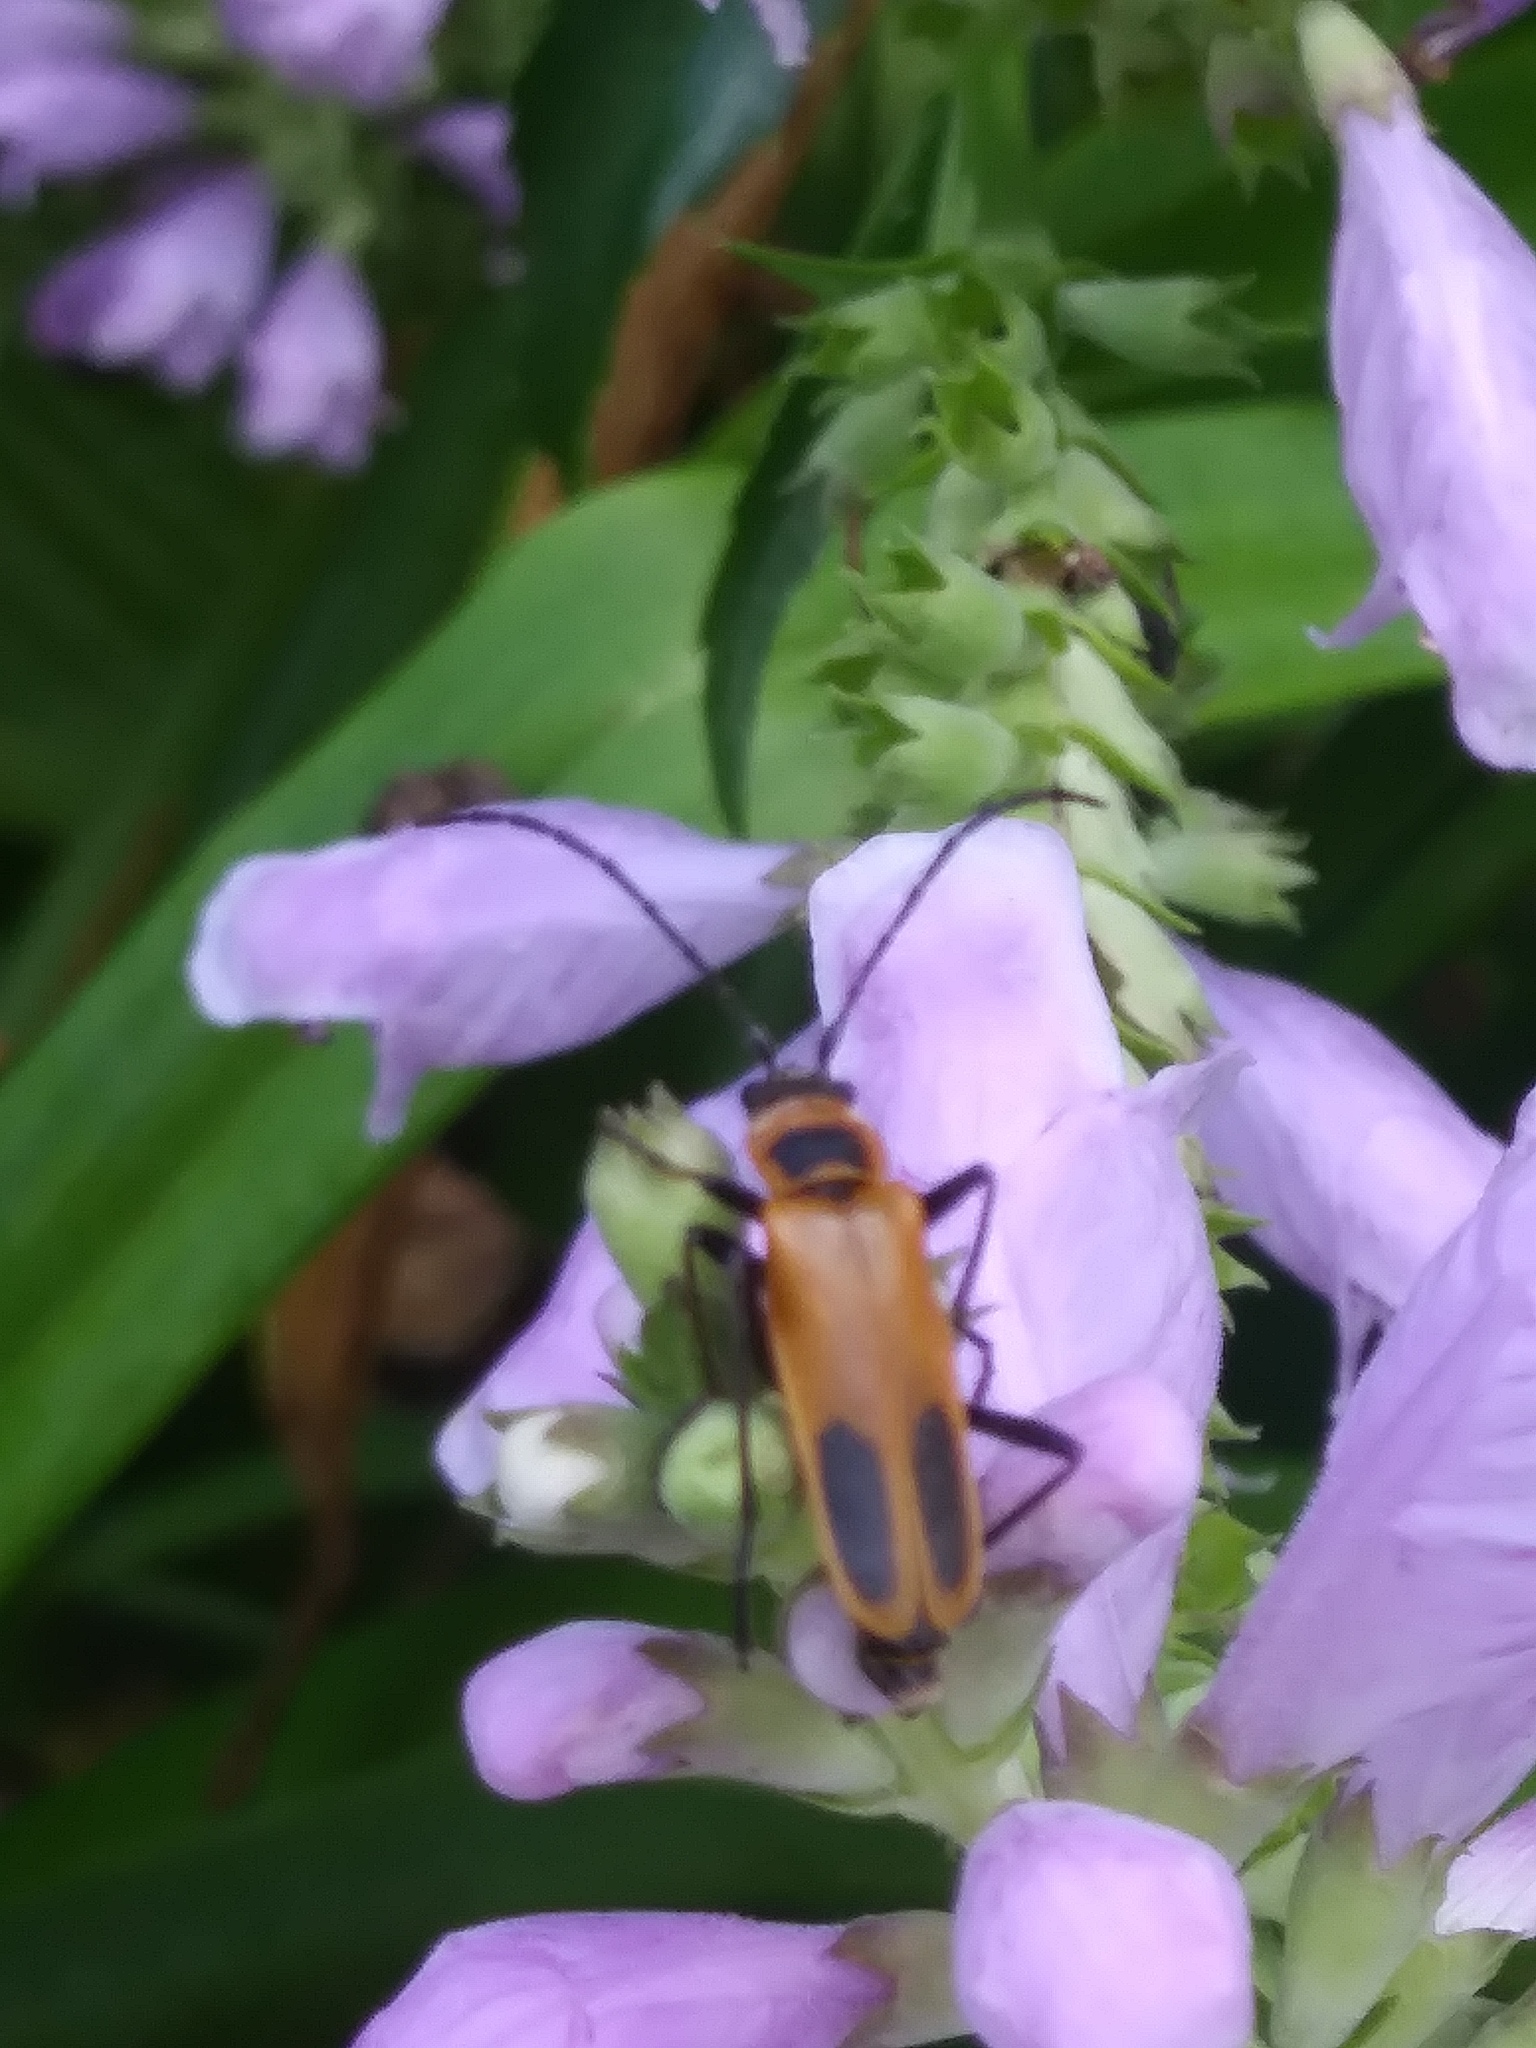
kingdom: Animalia
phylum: Arthropoda
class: Insecta
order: Coleoptera
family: Cantharidae
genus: Chauliognathus
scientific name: Chauliognathus pensylvanicus
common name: Goldenrod soldier beetle
